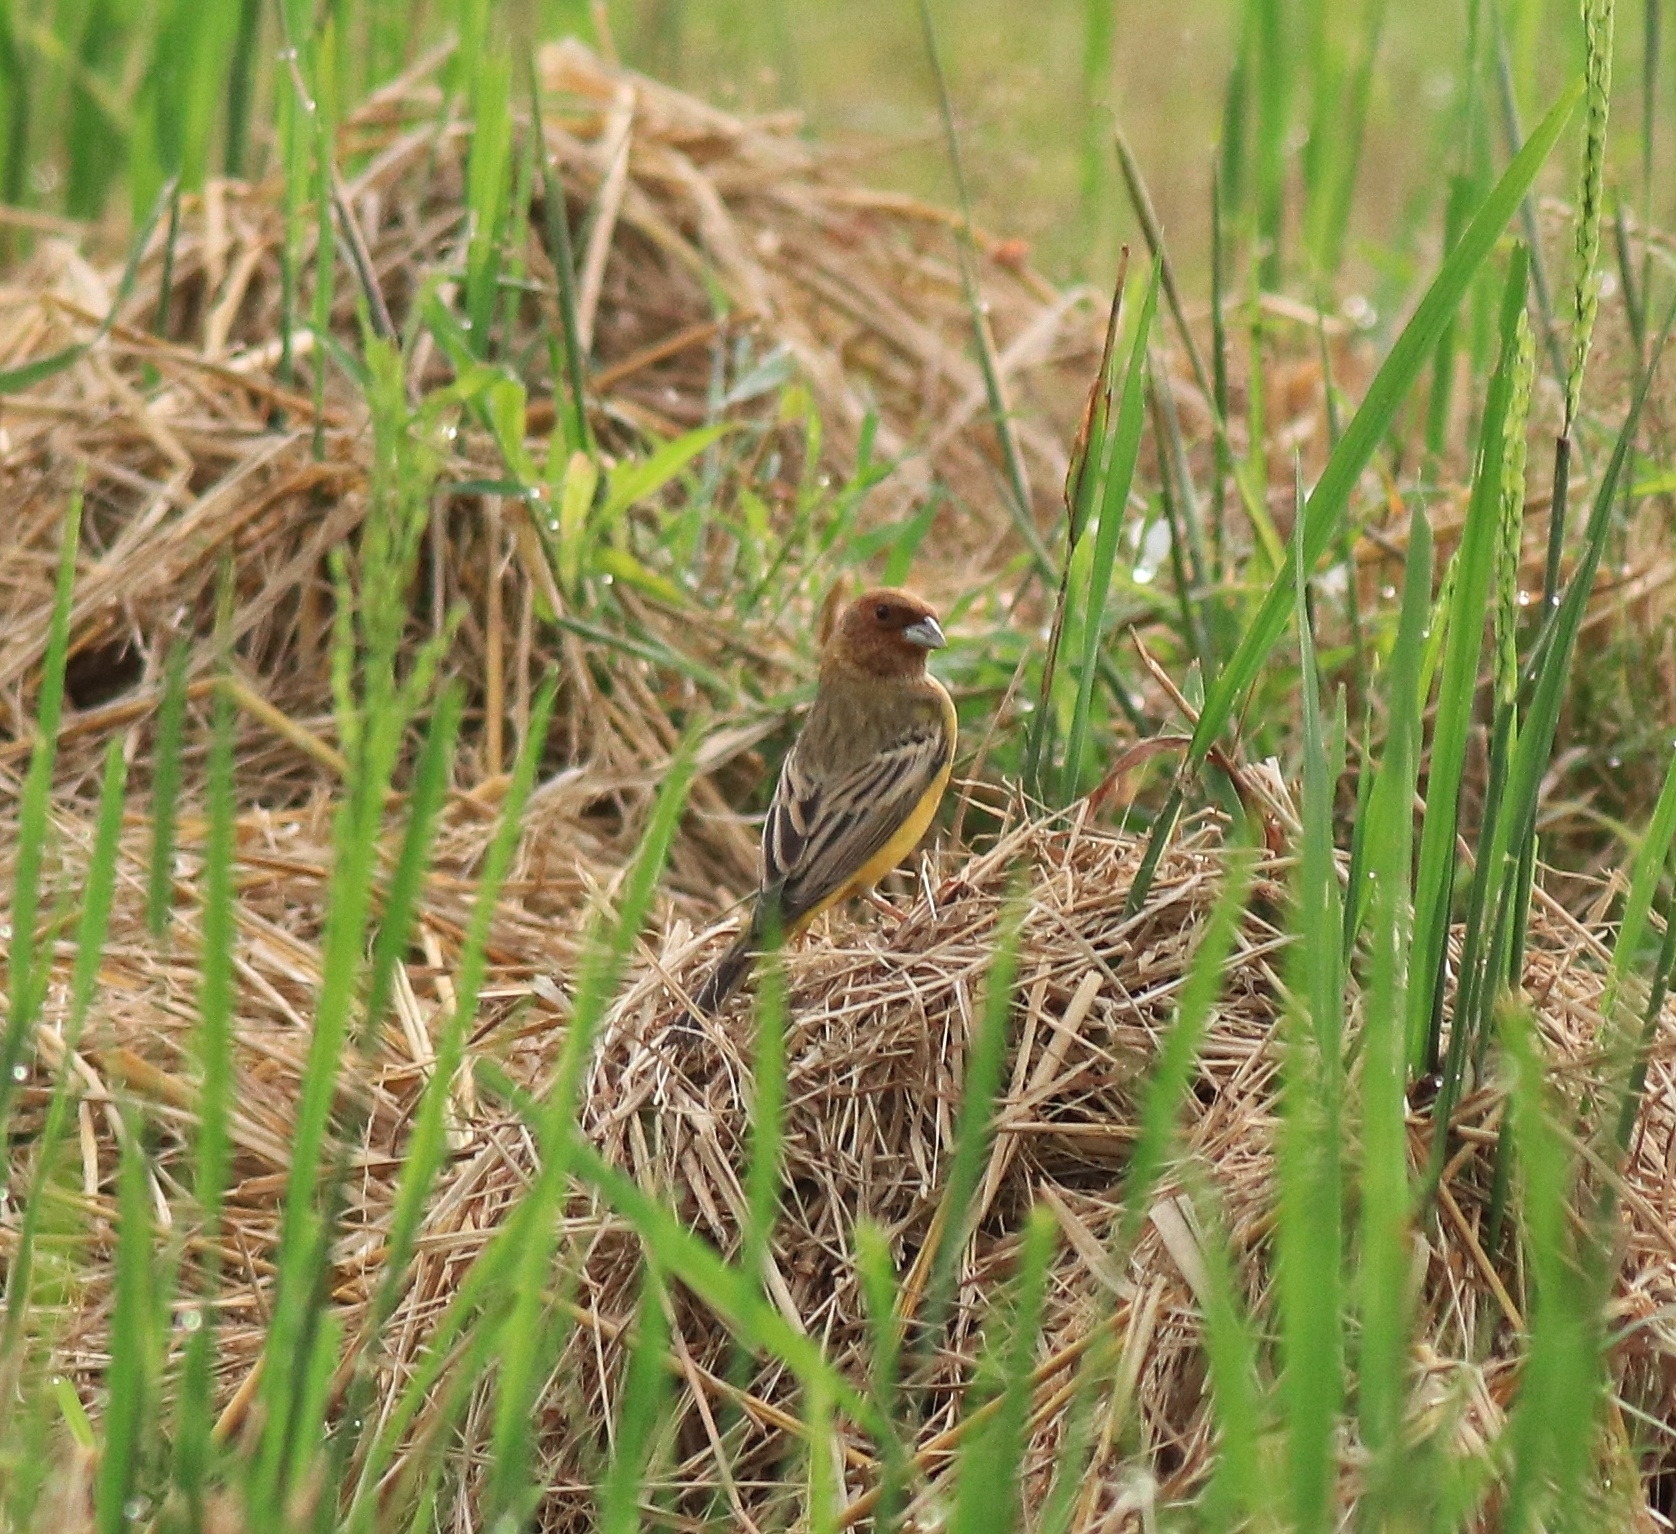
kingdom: Animalia
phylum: Chordata
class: Aves
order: Passeriformes
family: Emberizidae
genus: Emberiza
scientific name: Emberiza bruniceps
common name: Red-headed bunting
